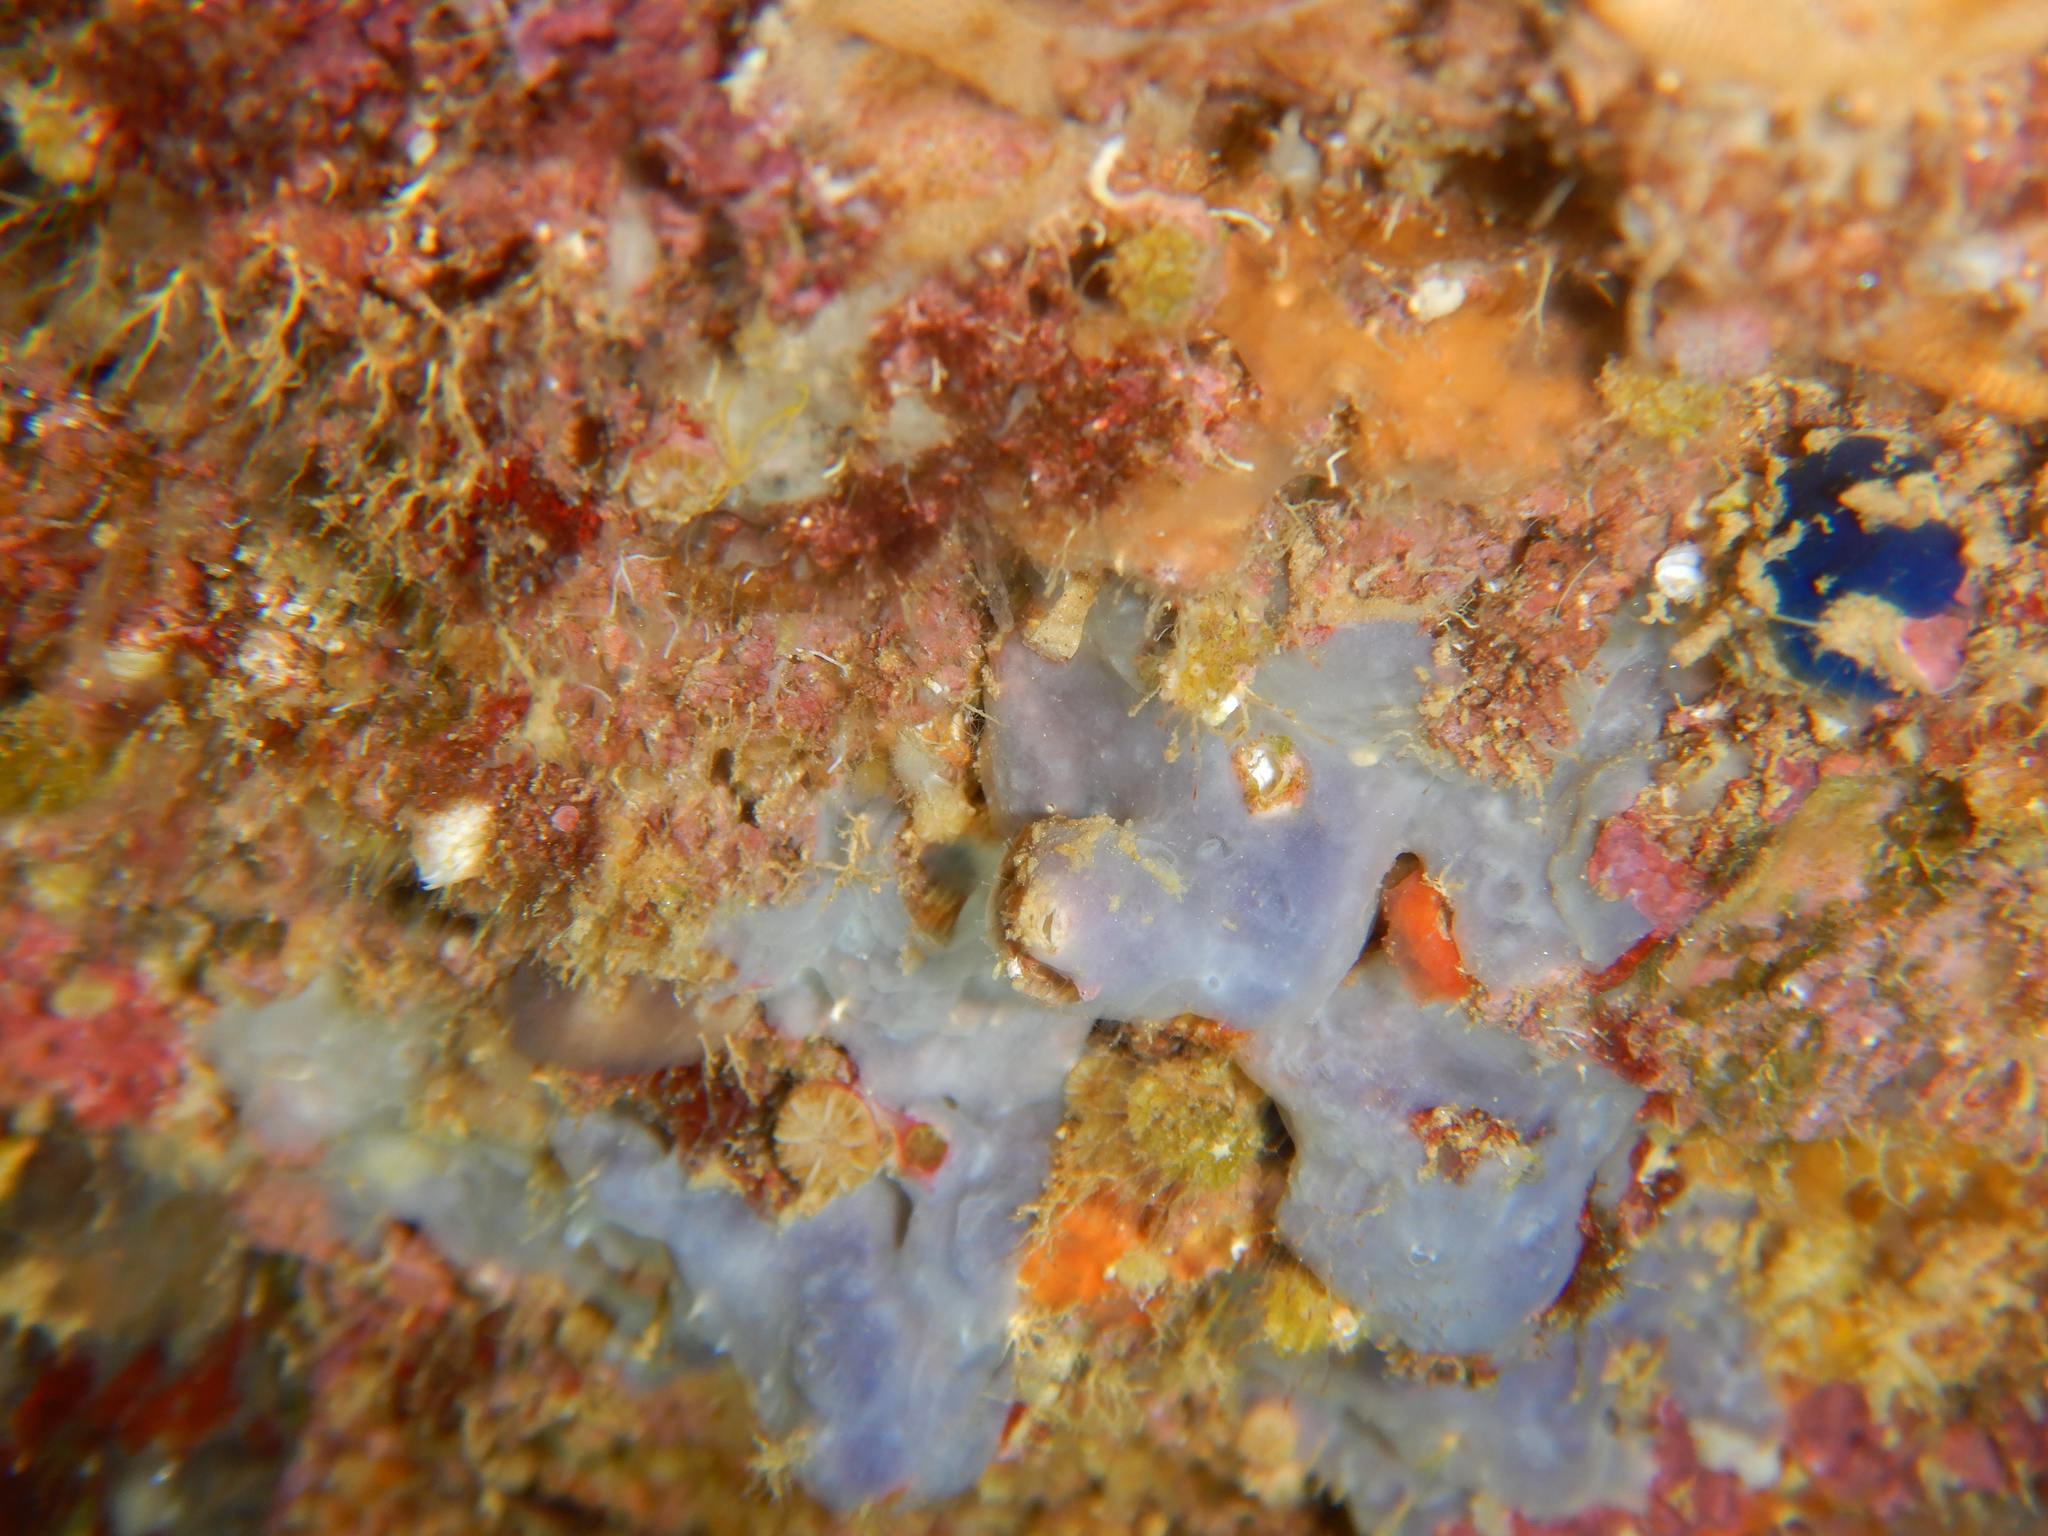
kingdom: Animalia
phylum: Porifera
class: Demospongiae
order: Poecilosclerida
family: Hymedesmiidae
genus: Phorbas
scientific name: Phorbas tenacior
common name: Bluish encrusting sponge
